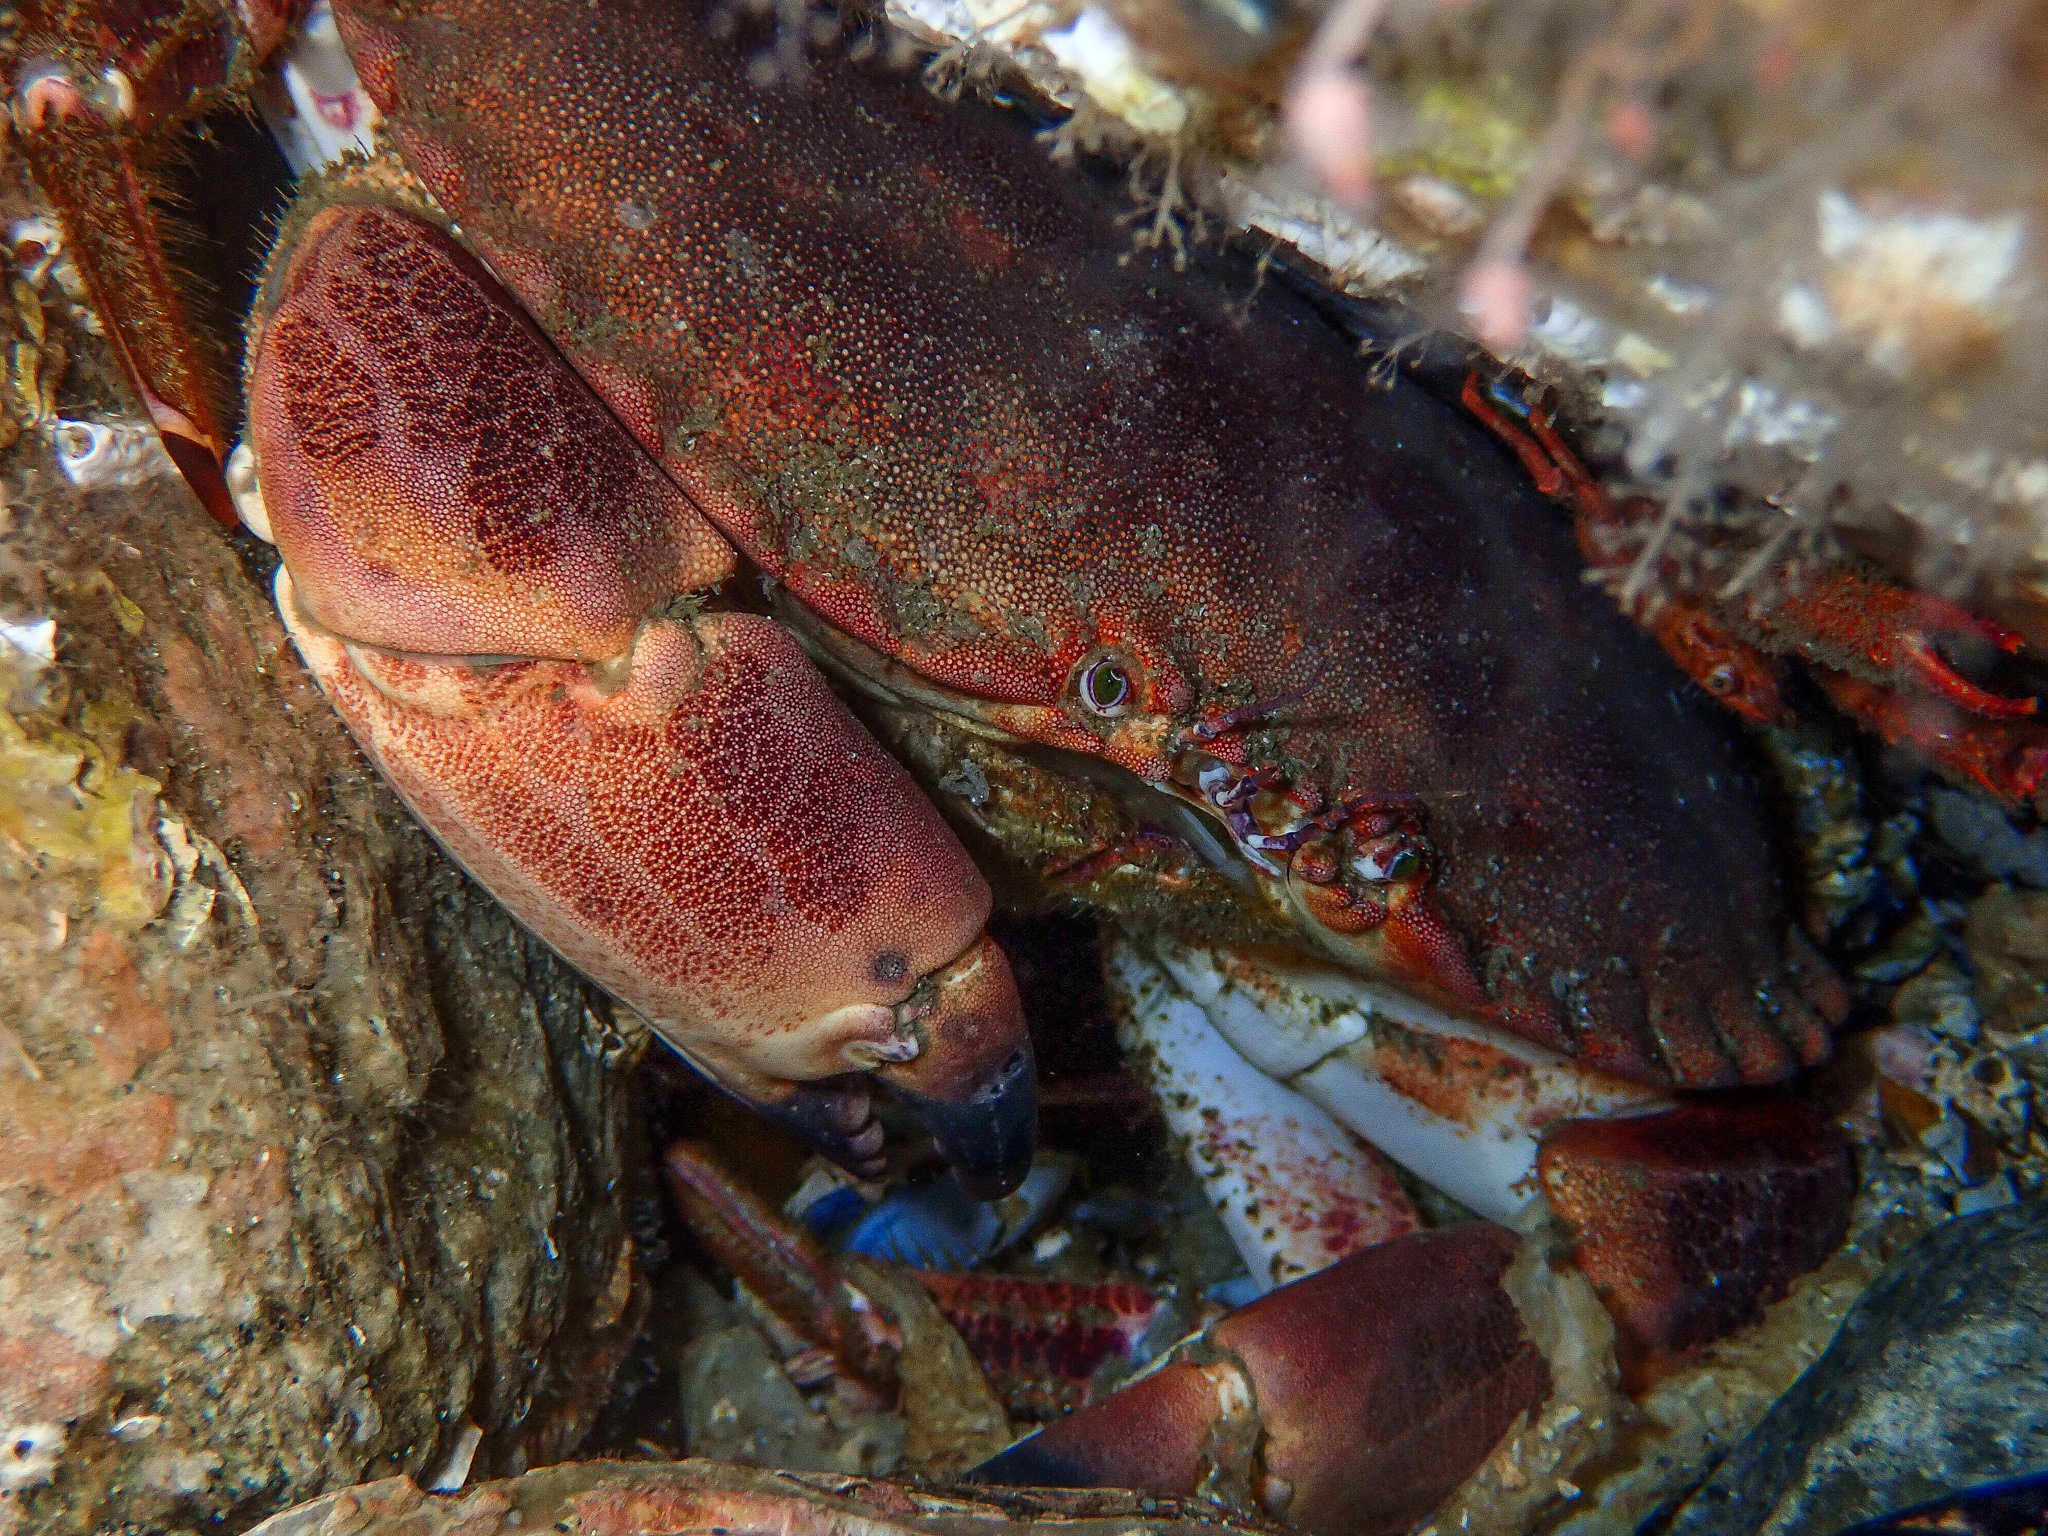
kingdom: Animalia
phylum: Arthropoda
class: Malacostraca
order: Decapoda
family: Cancridae
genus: Cancer
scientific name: Cancer pagurus
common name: Edible crab
